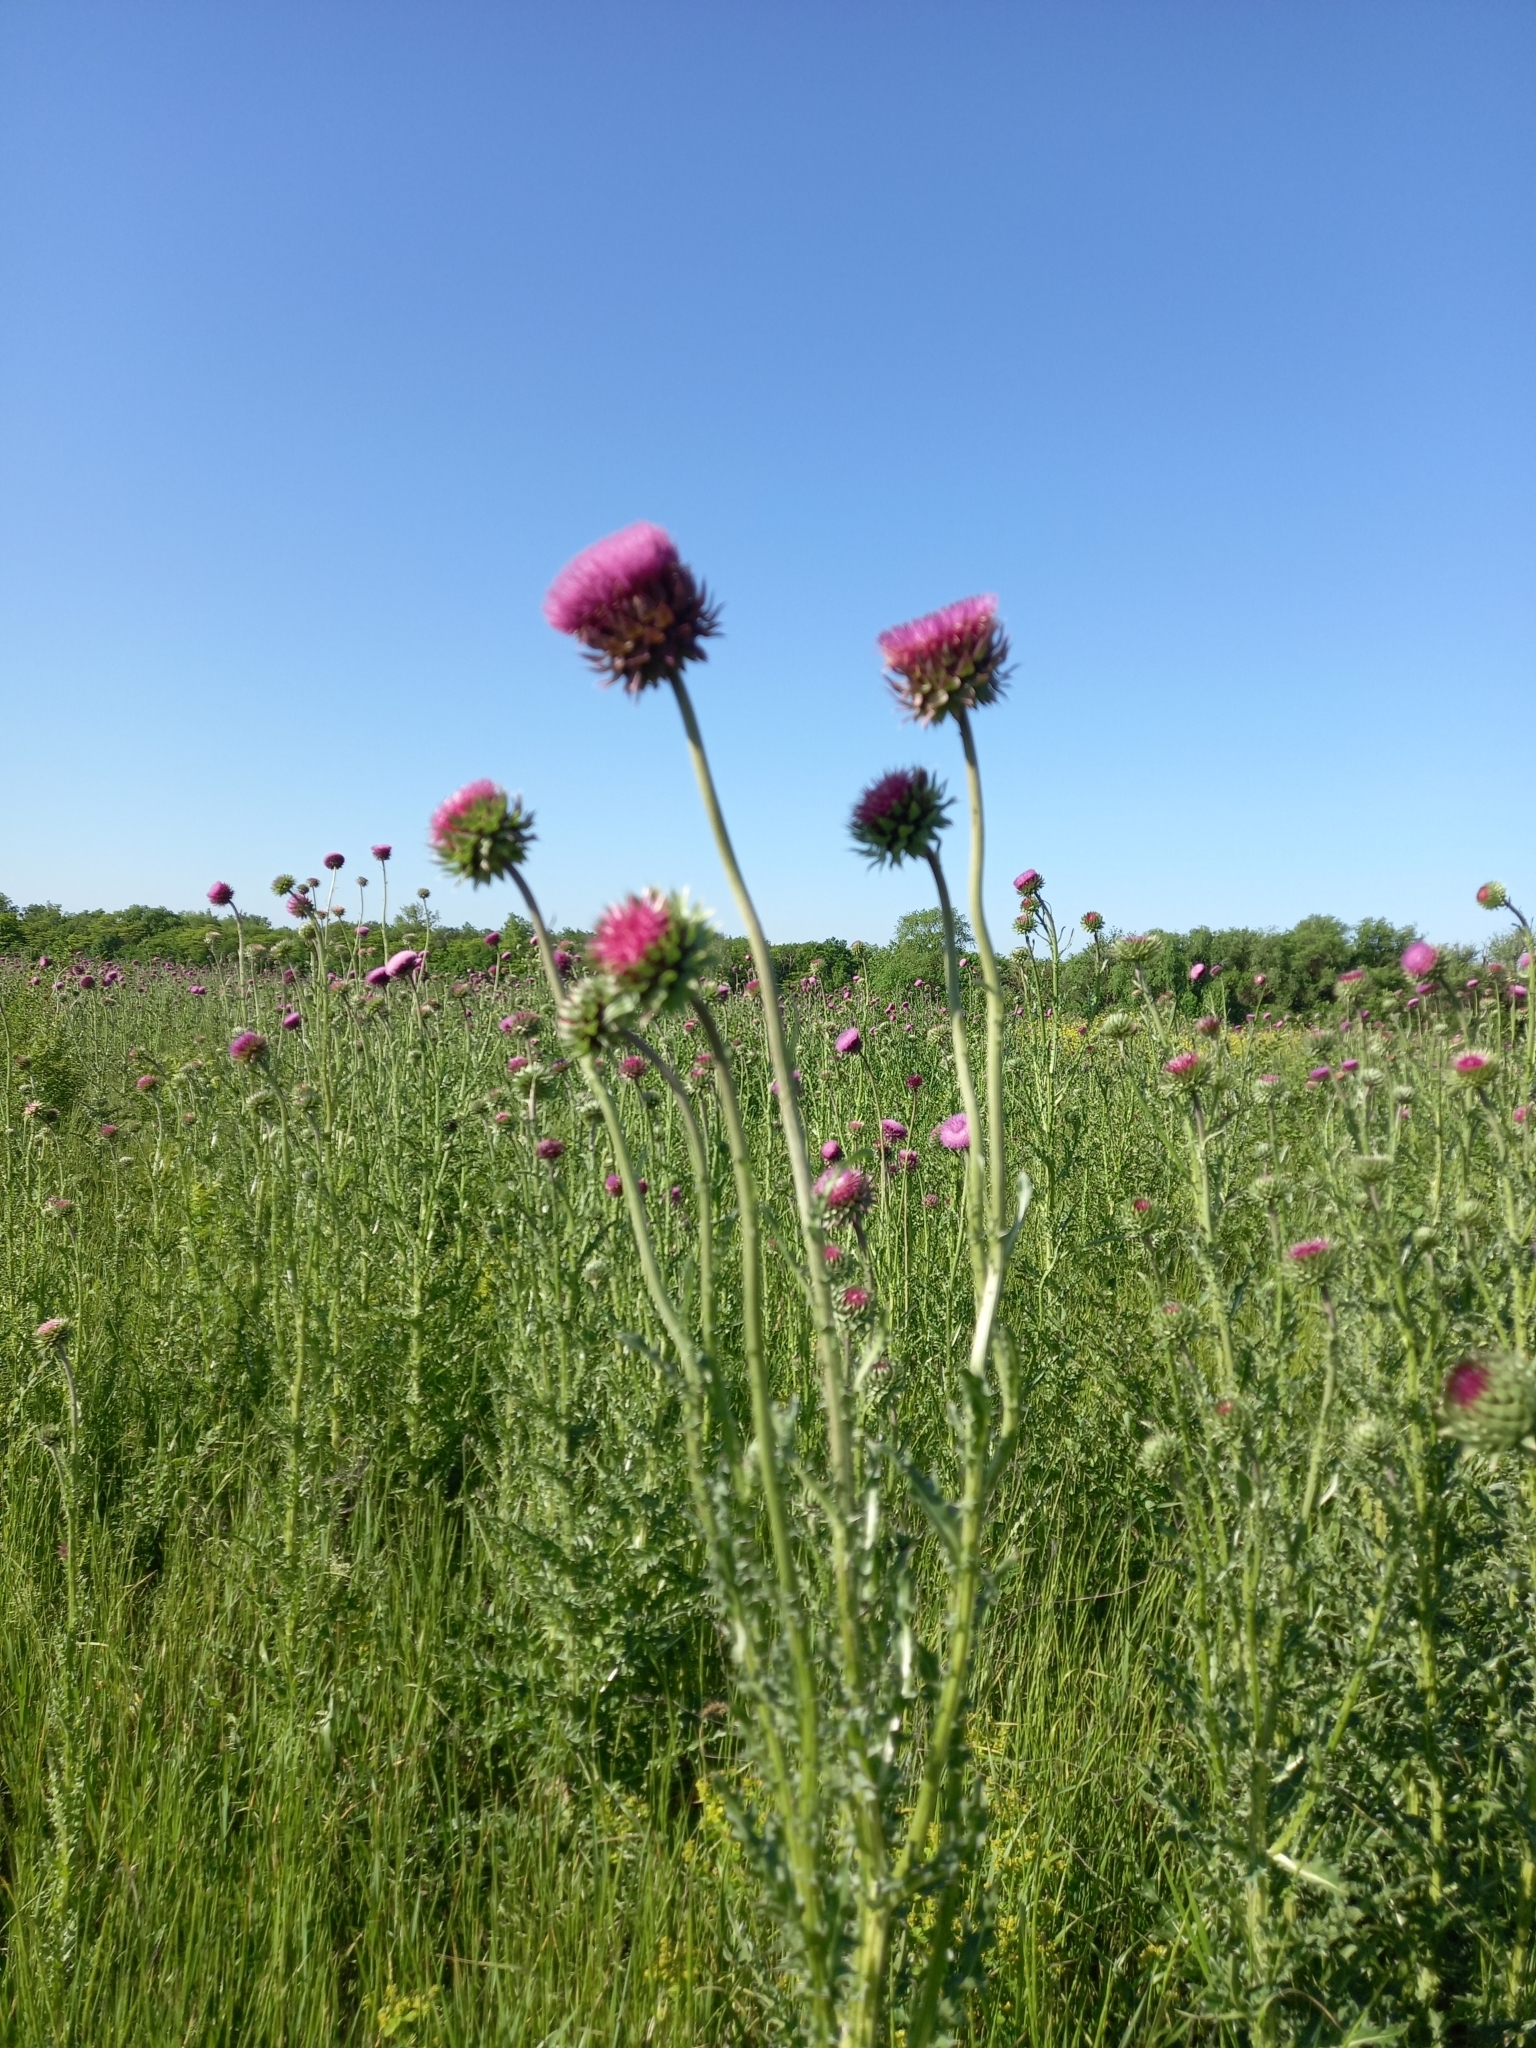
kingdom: Plantae
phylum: Tracheophyta
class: Magnoliopsida
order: Asterales
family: Asteraceae
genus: Carduus
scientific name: Carduus nutans
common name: Musk thistle
